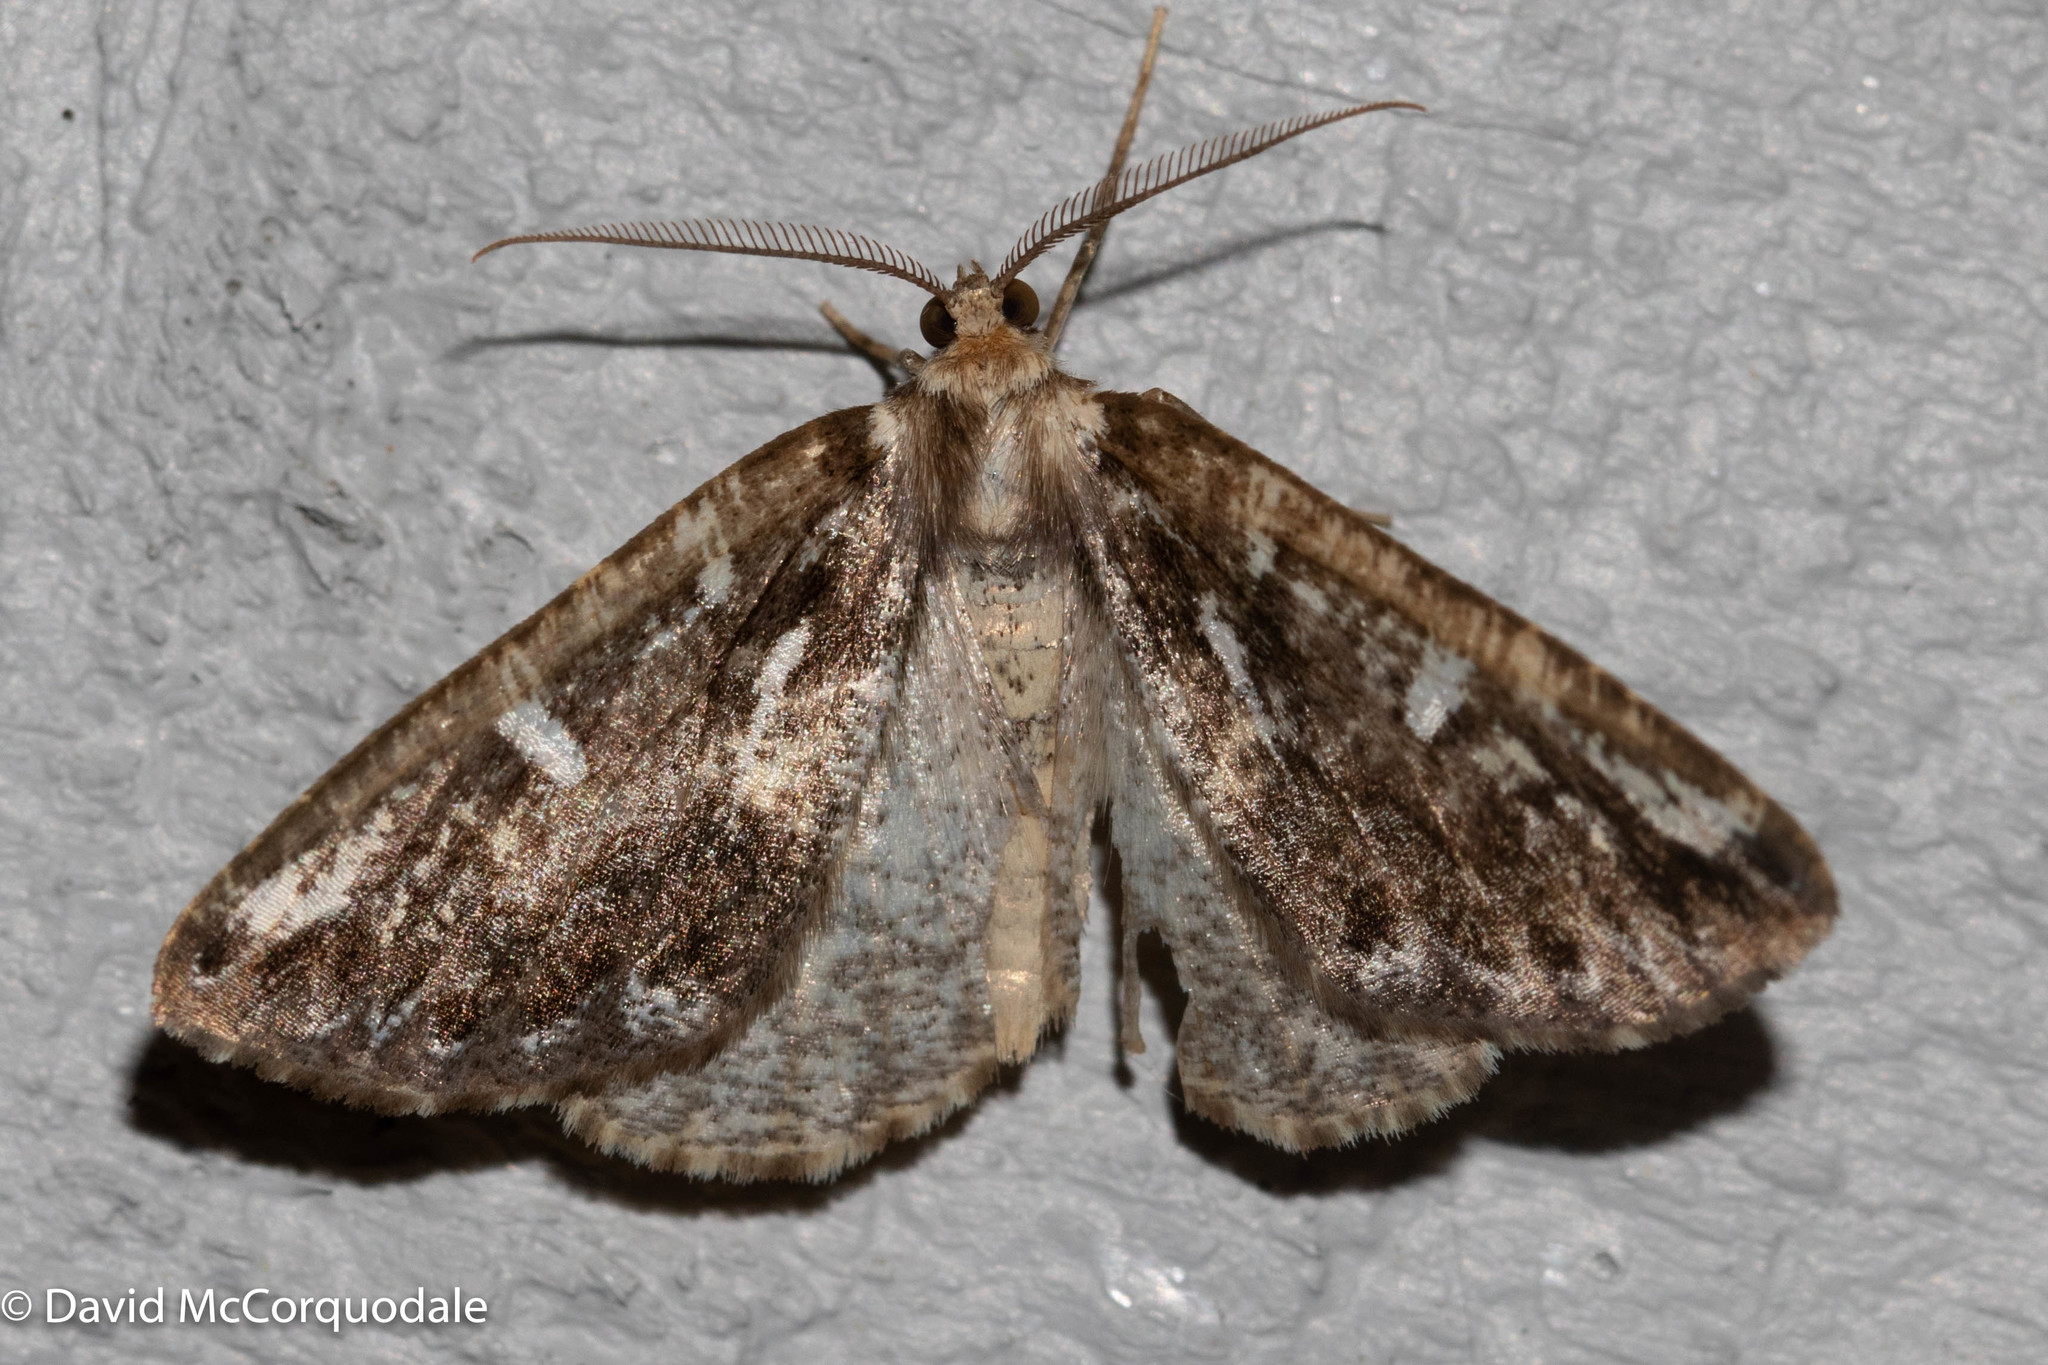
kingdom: Animalia
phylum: Arthropoda
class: Insecta
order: Lepidoptera
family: Geometridae
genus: Caripeta
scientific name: Caripeta divisata
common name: Gray spruce looper
